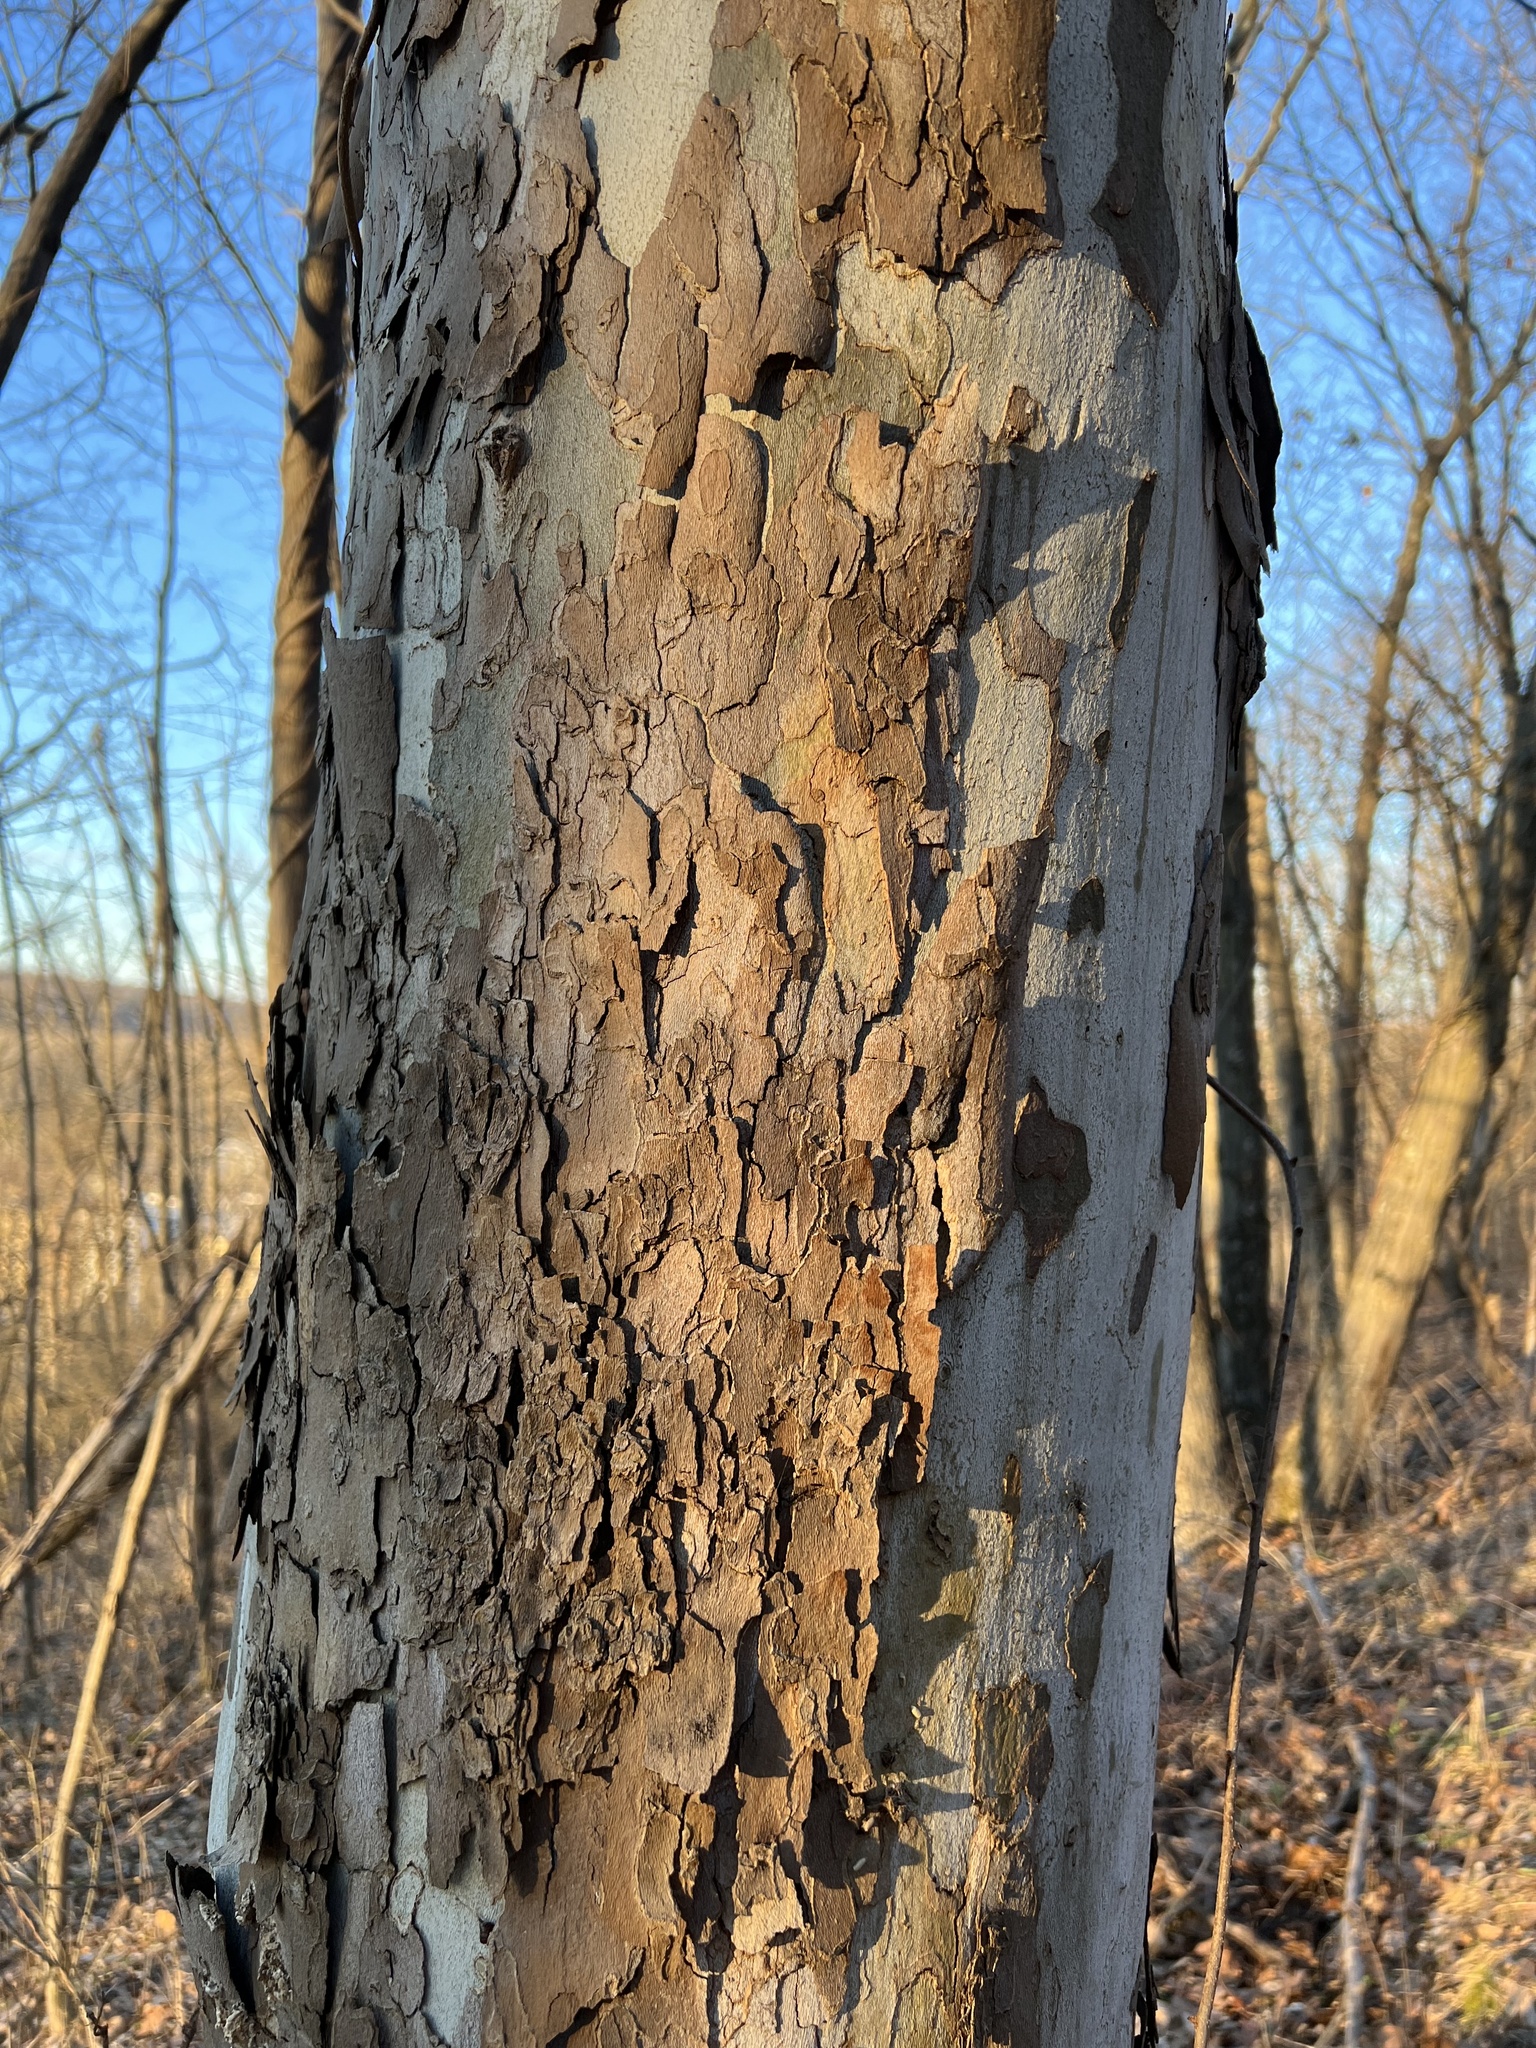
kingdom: Plantae
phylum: Tracheophyta
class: Magnoliopsida
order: Proteales
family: Platanaceae
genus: Platanus
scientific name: Platanus occidentalis
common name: American sycamore
